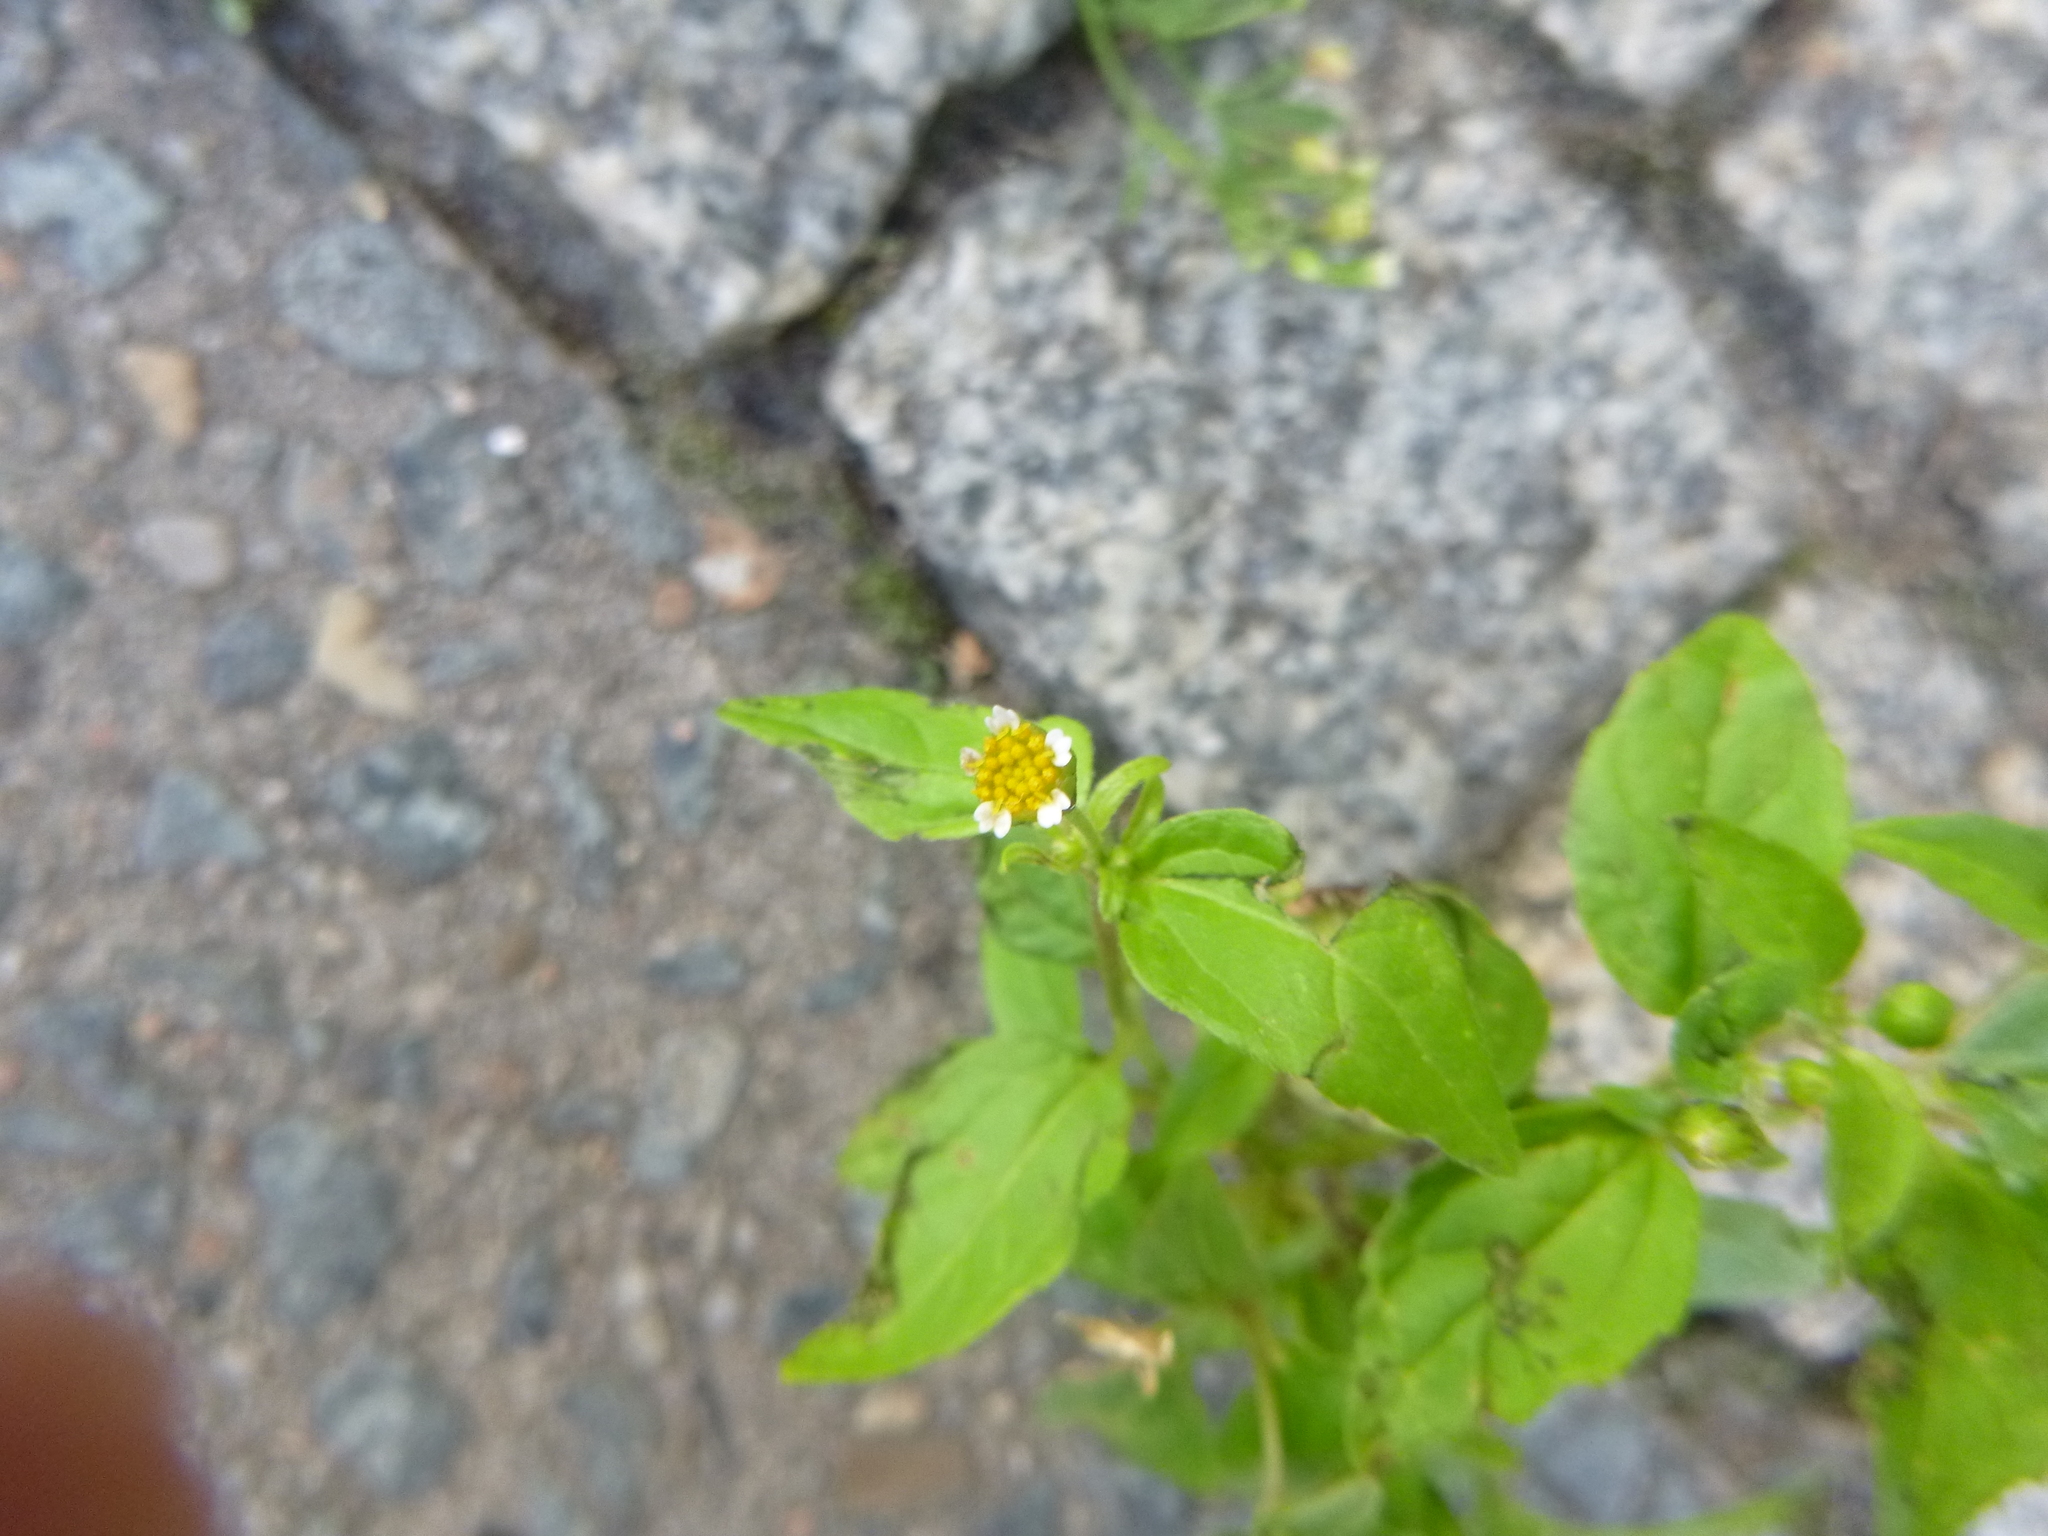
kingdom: Plantae
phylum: Tracheophyta
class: Magnoliopsida
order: Asterales
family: Asteraceae
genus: Galinsoga
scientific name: Galinsoga parviflora
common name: Gallant soldier
